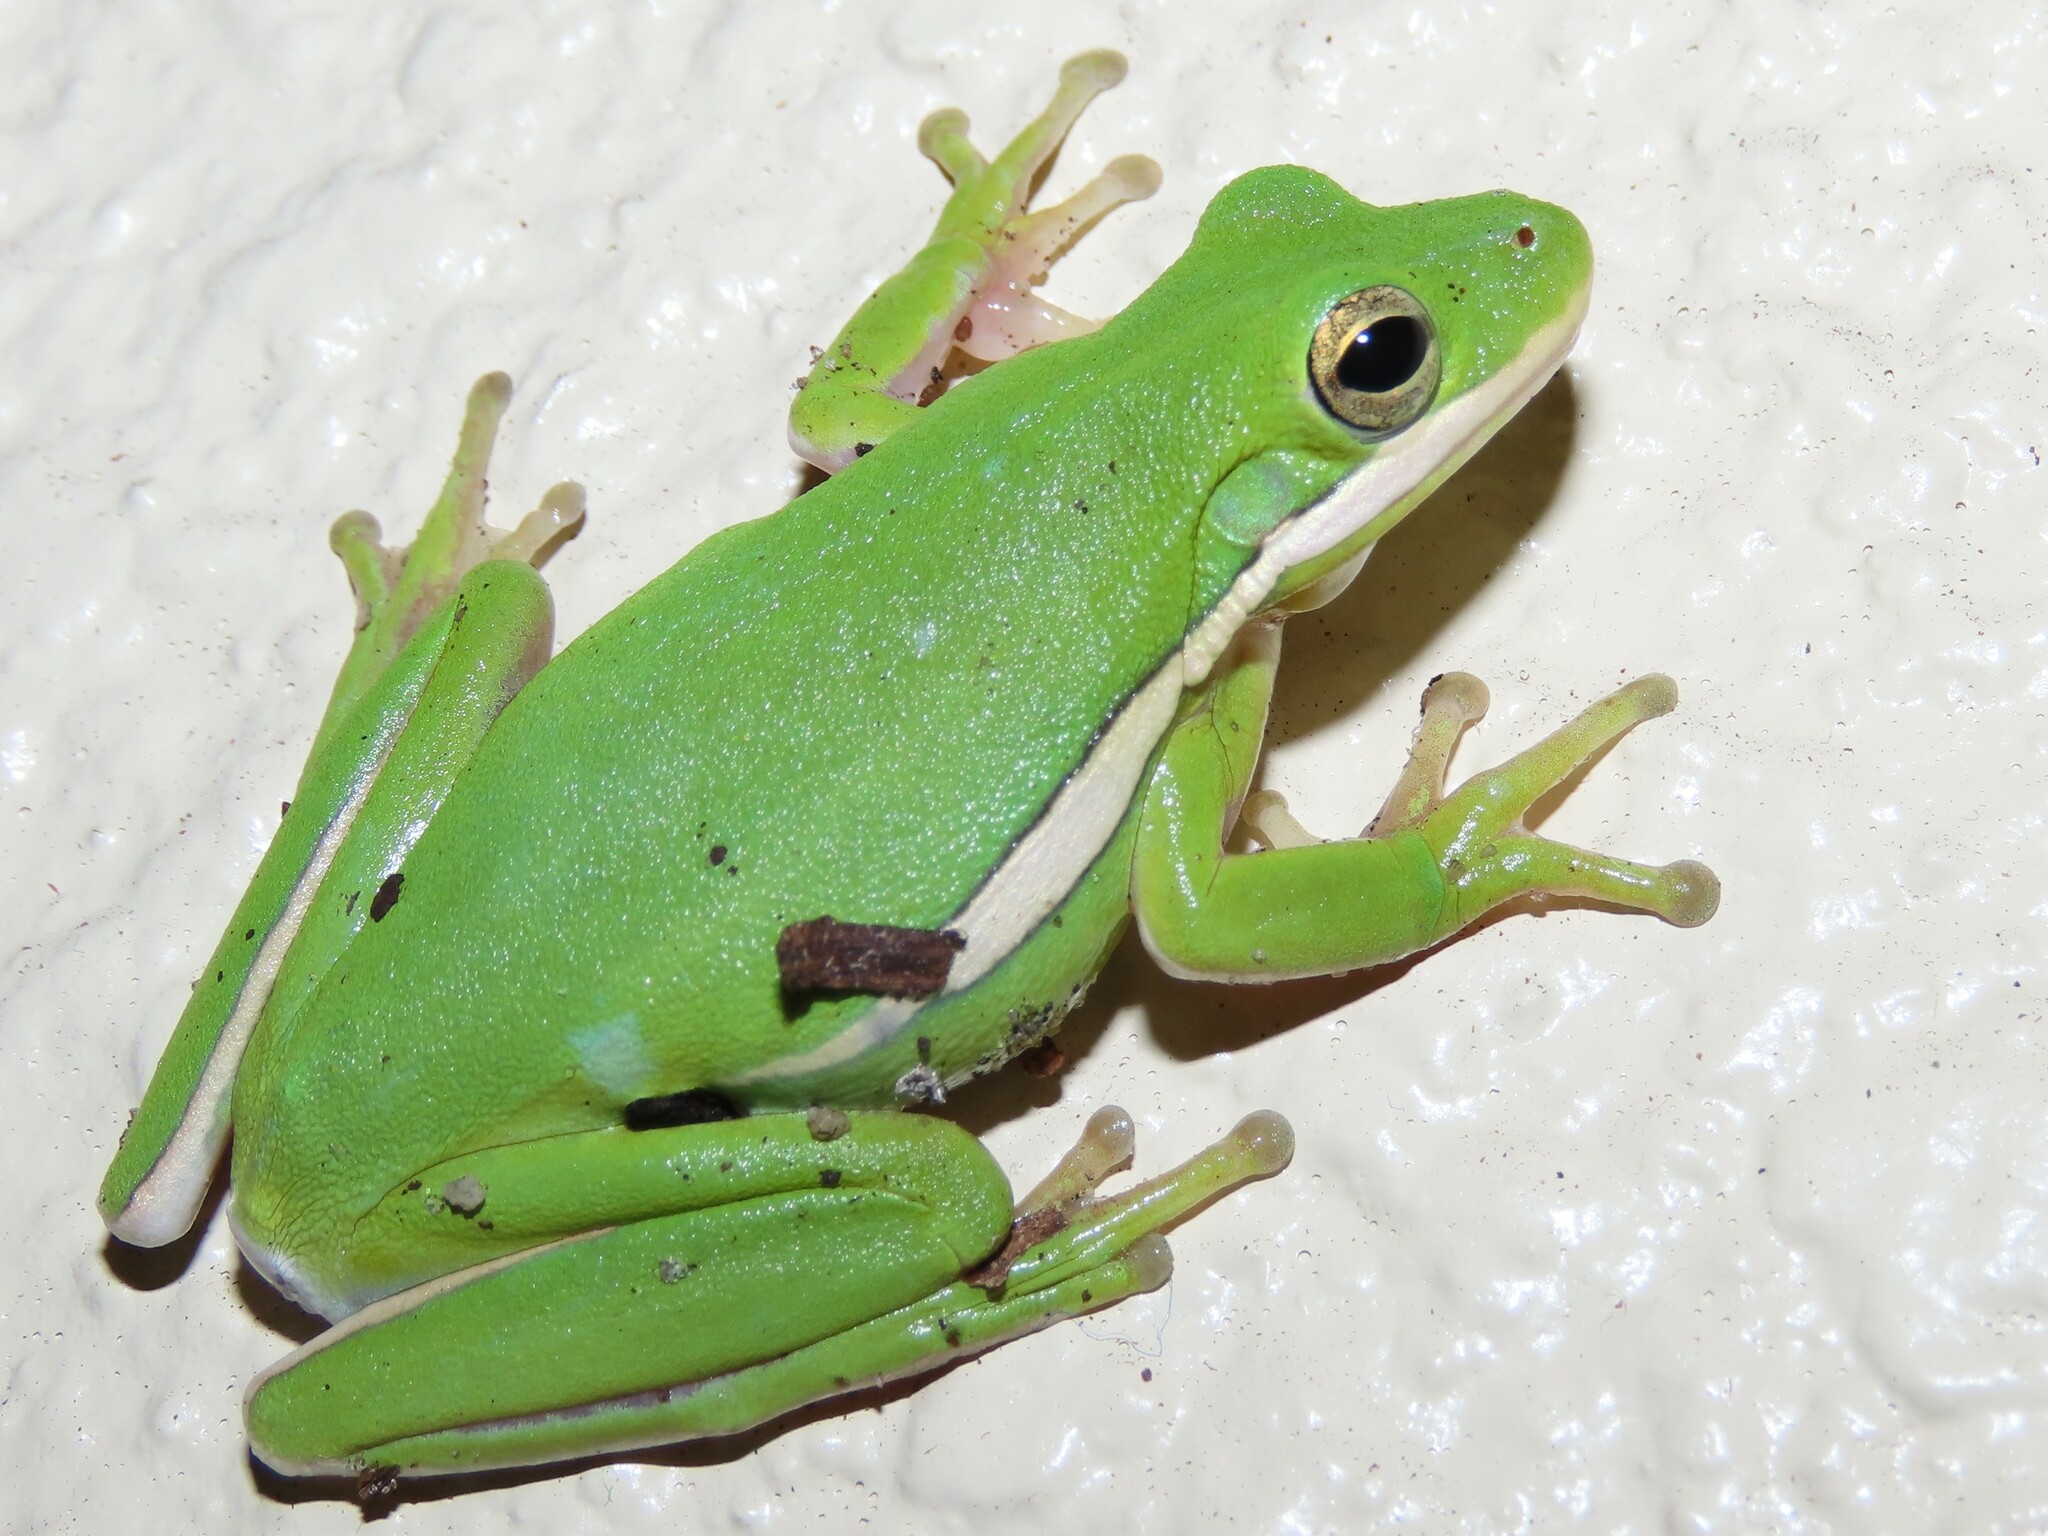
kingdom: Animalia
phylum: Chordata
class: Amphibia
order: Anura
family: Hylidae
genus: Dryophytes
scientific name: Dryophytes cinereus
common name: Green treefrog
